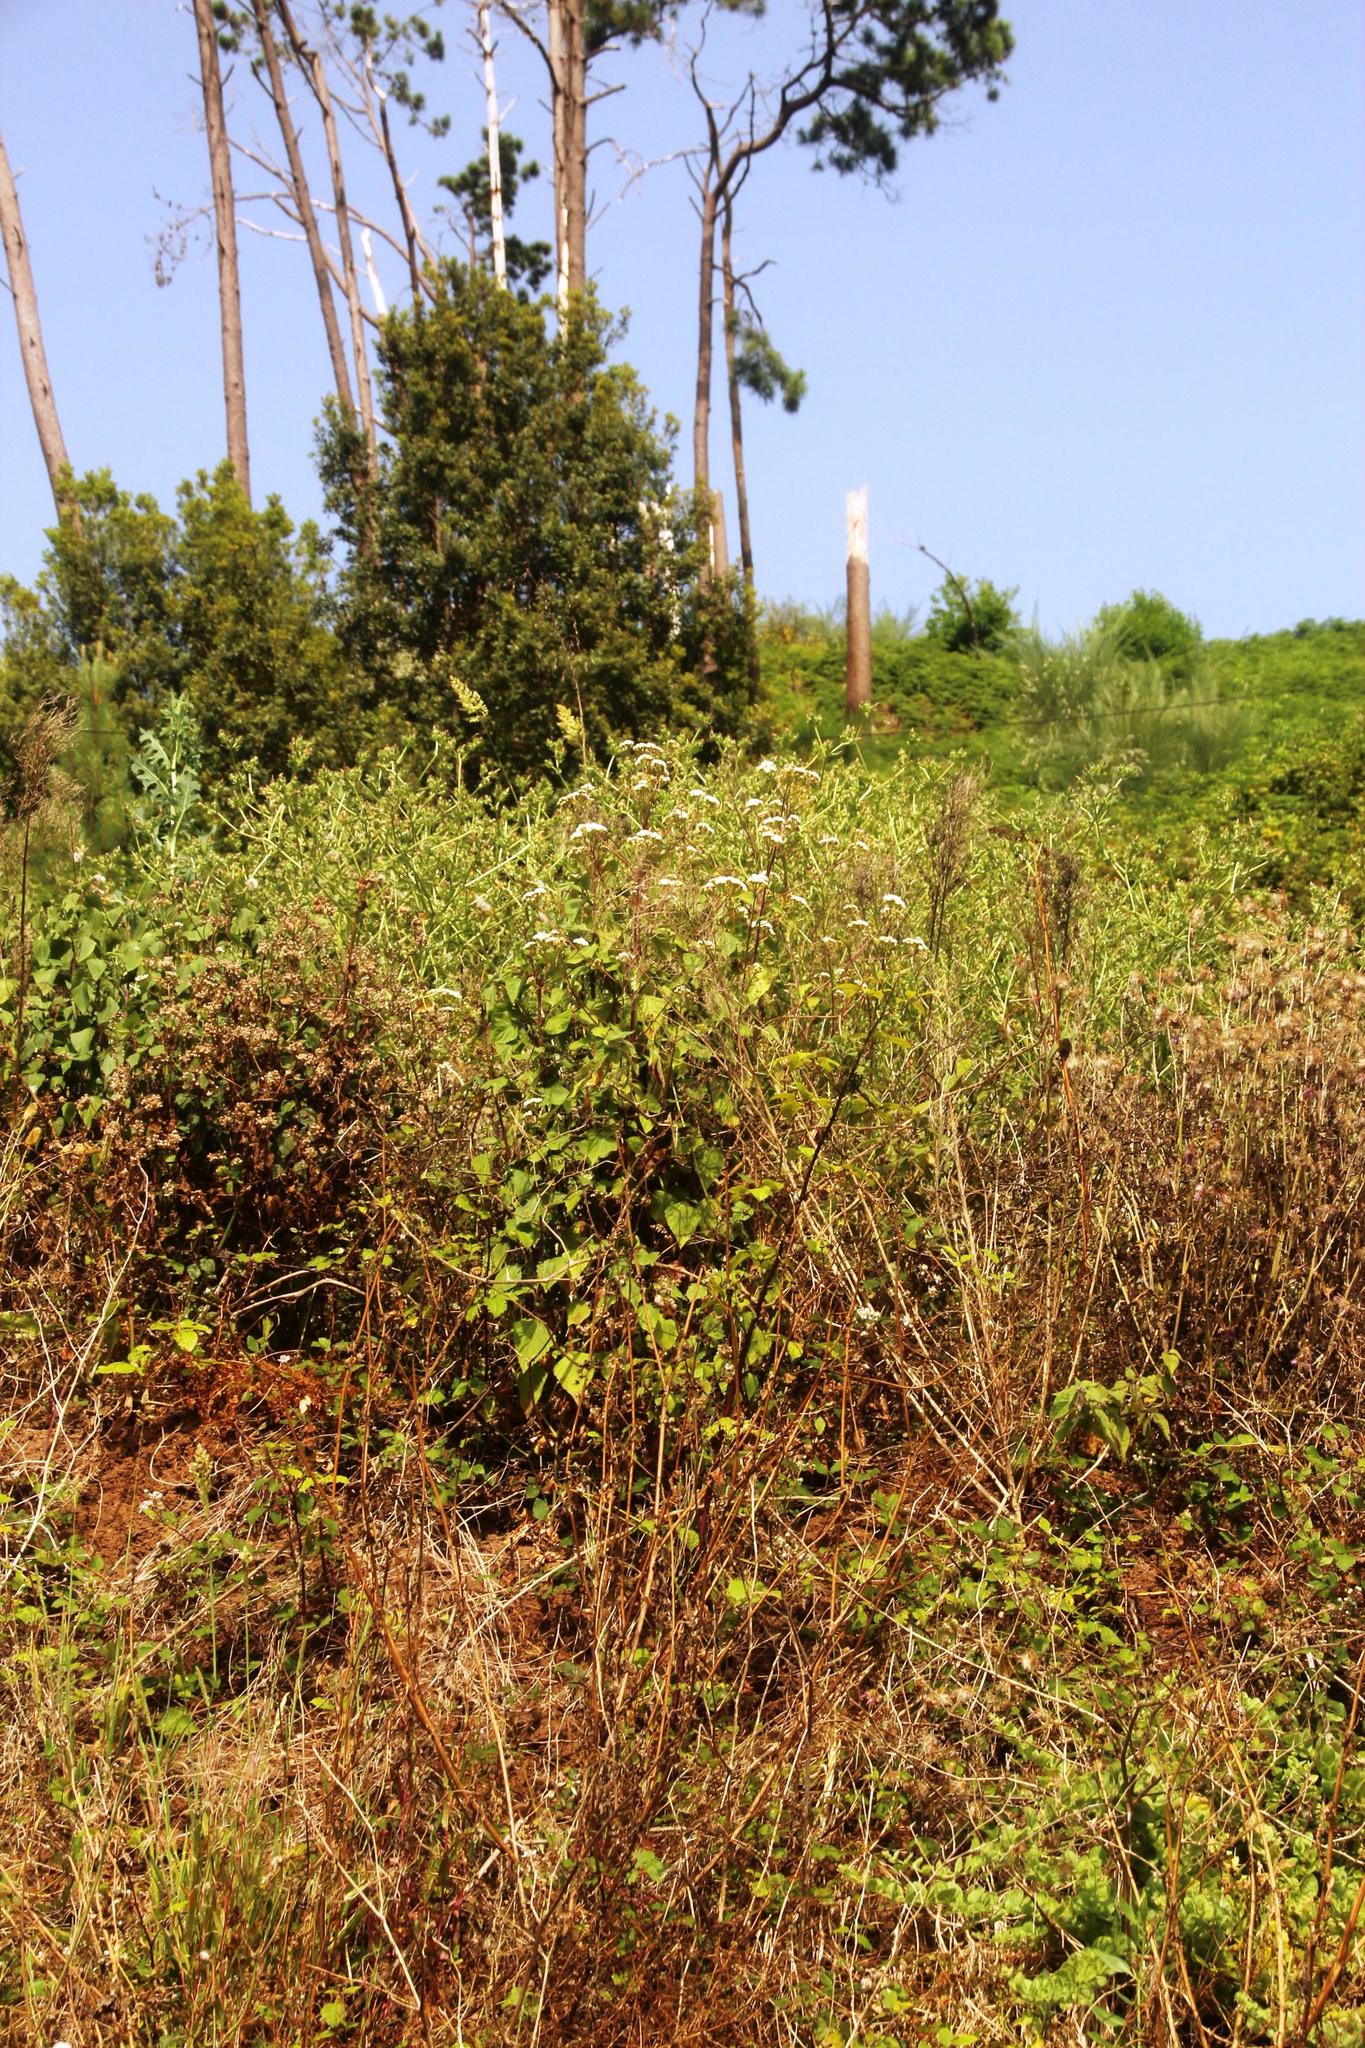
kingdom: Plantae
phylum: Tracheophyta
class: Magnoliopsida
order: Asterales
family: Asteraceae
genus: Ageratina
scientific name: Ageratina adenophora
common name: Sticky snakeroot
